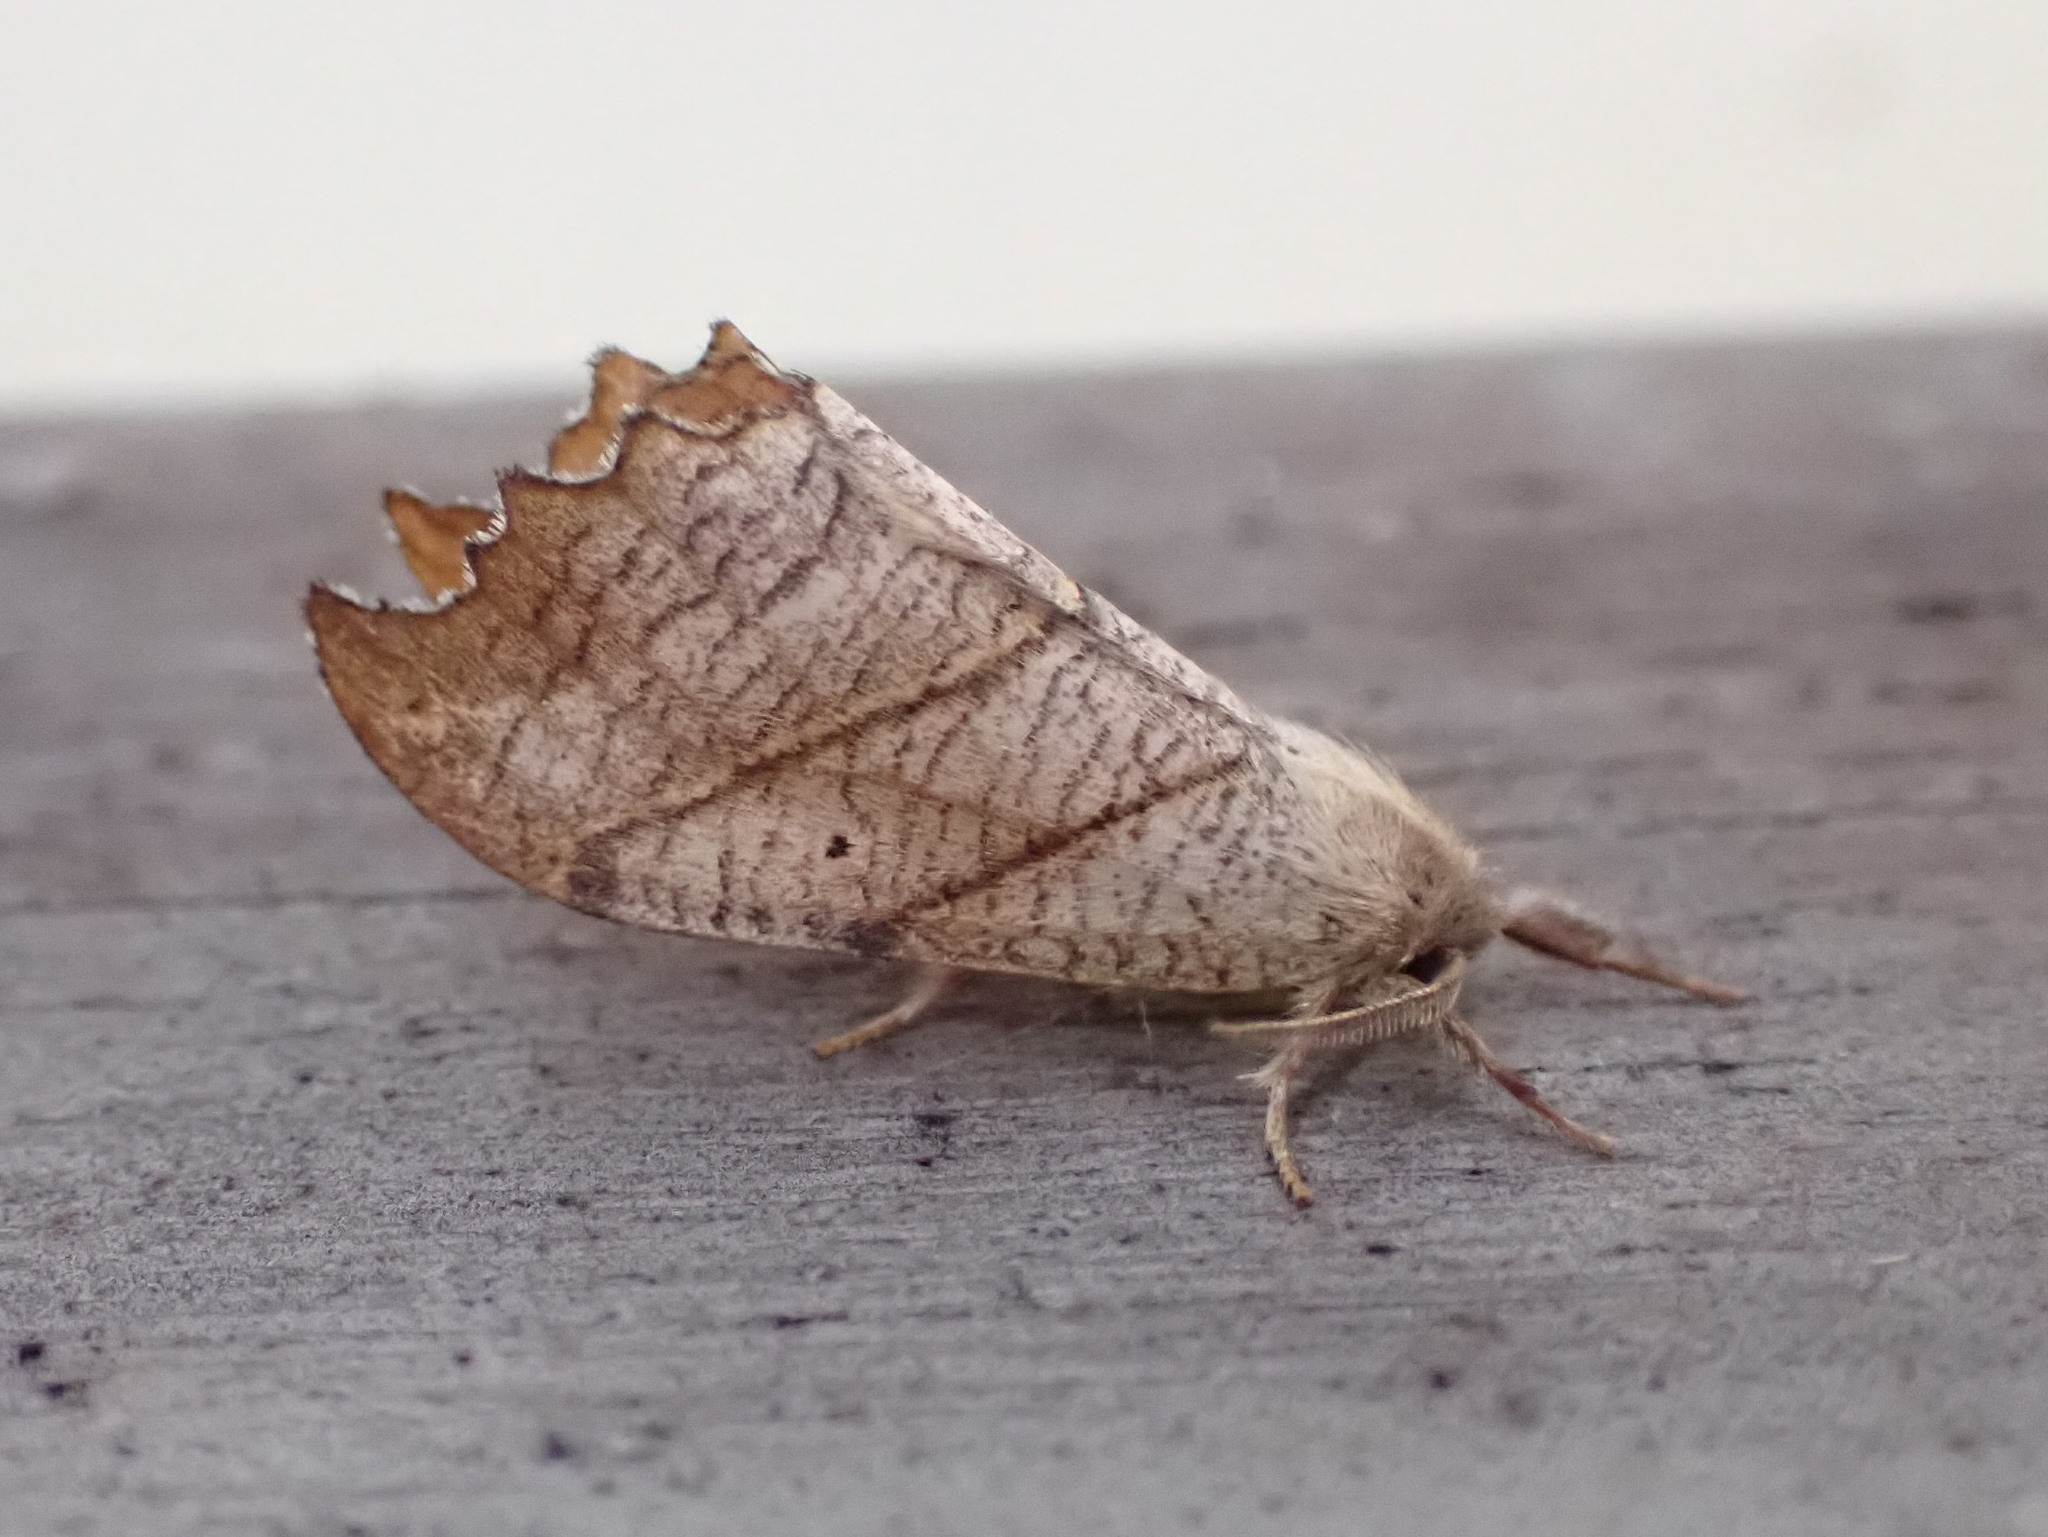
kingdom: Animalia
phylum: Arthropoda
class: Insecta
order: Lepidoptera
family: Drepanidae
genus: Falcaria
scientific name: Falcaria bilineata
